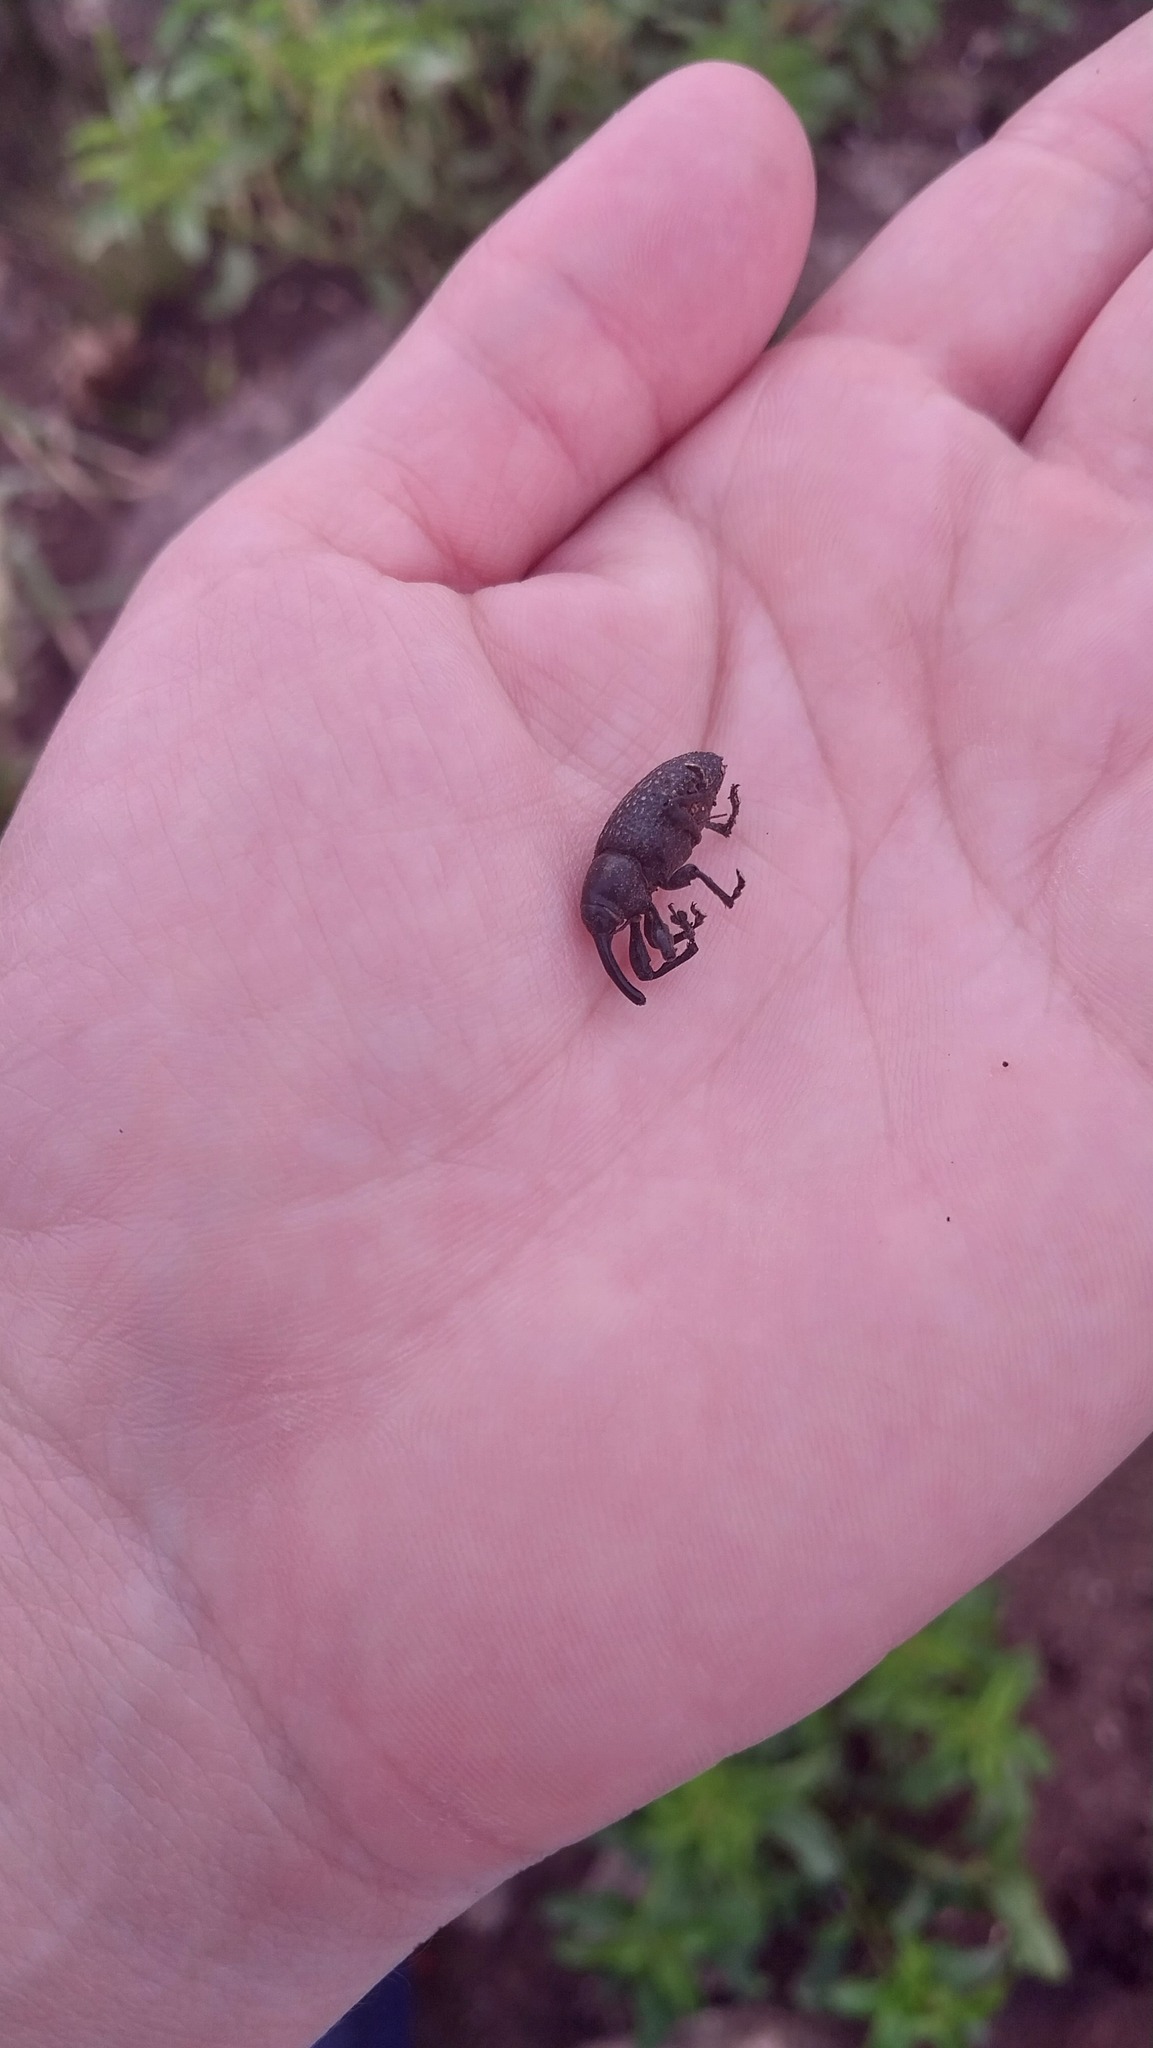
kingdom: Animalia
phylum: Arthropoda
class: Insecta
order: Coleoptera
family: Curculionidae
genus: Heilipodus
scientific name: Heilipodus scabripennis
